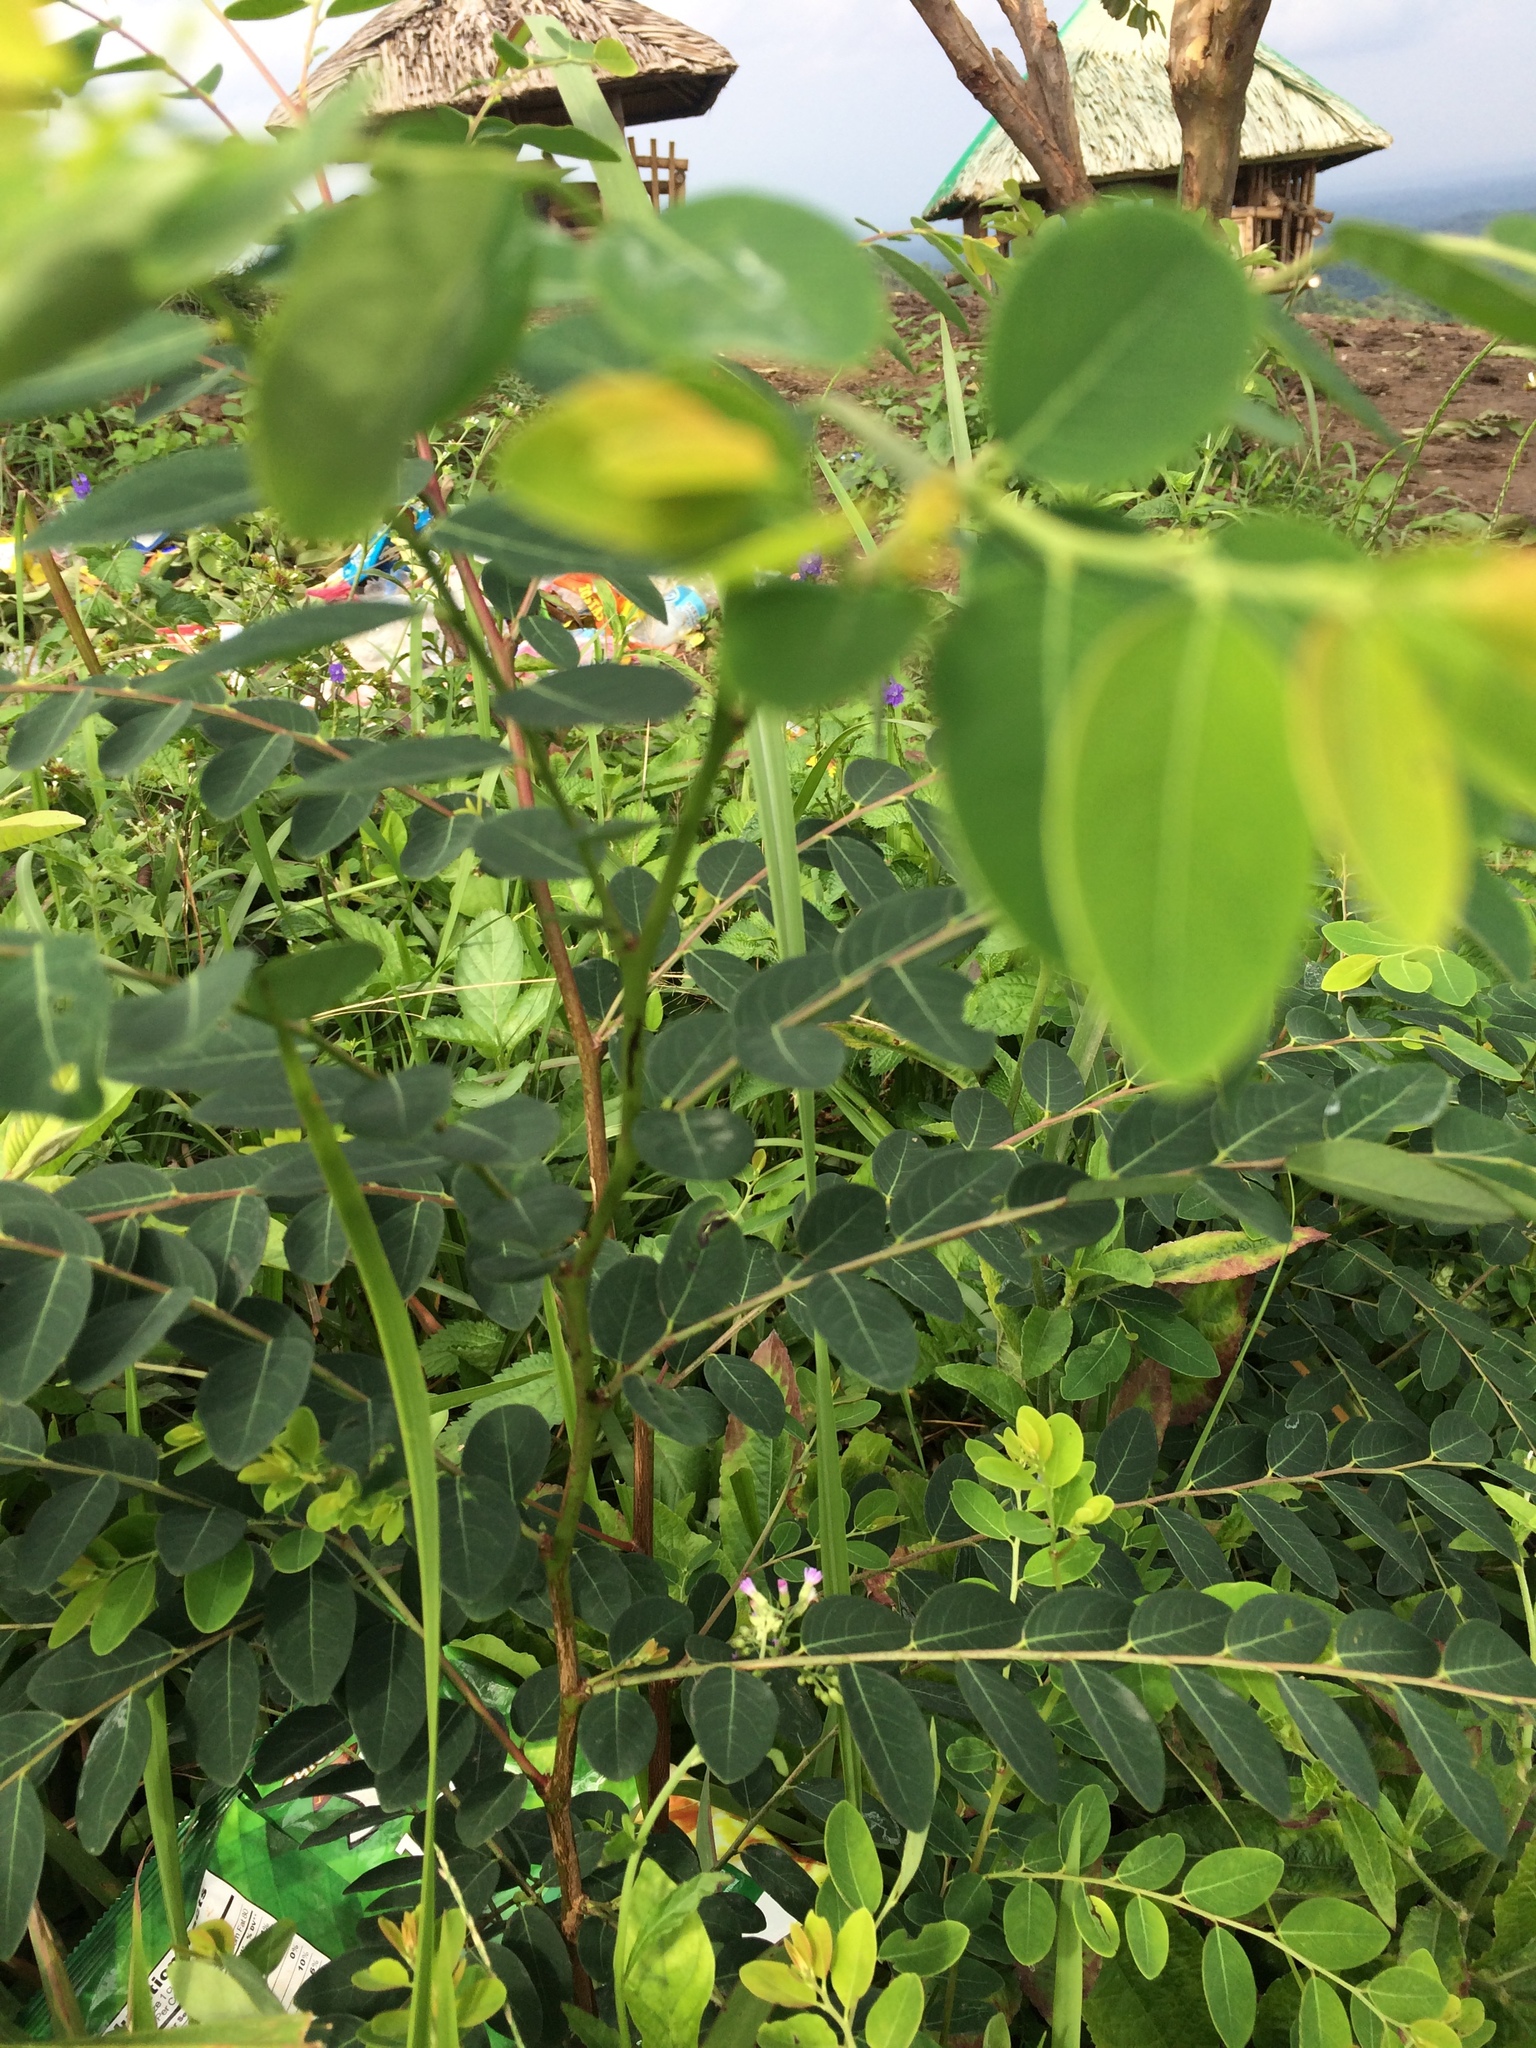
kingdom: Plantae
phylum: Tracheophyta
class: Magnoliopsida
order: Malpighiales
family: Phyllanthaceae
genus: Breynia
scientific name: Breynia vitis-idaea
